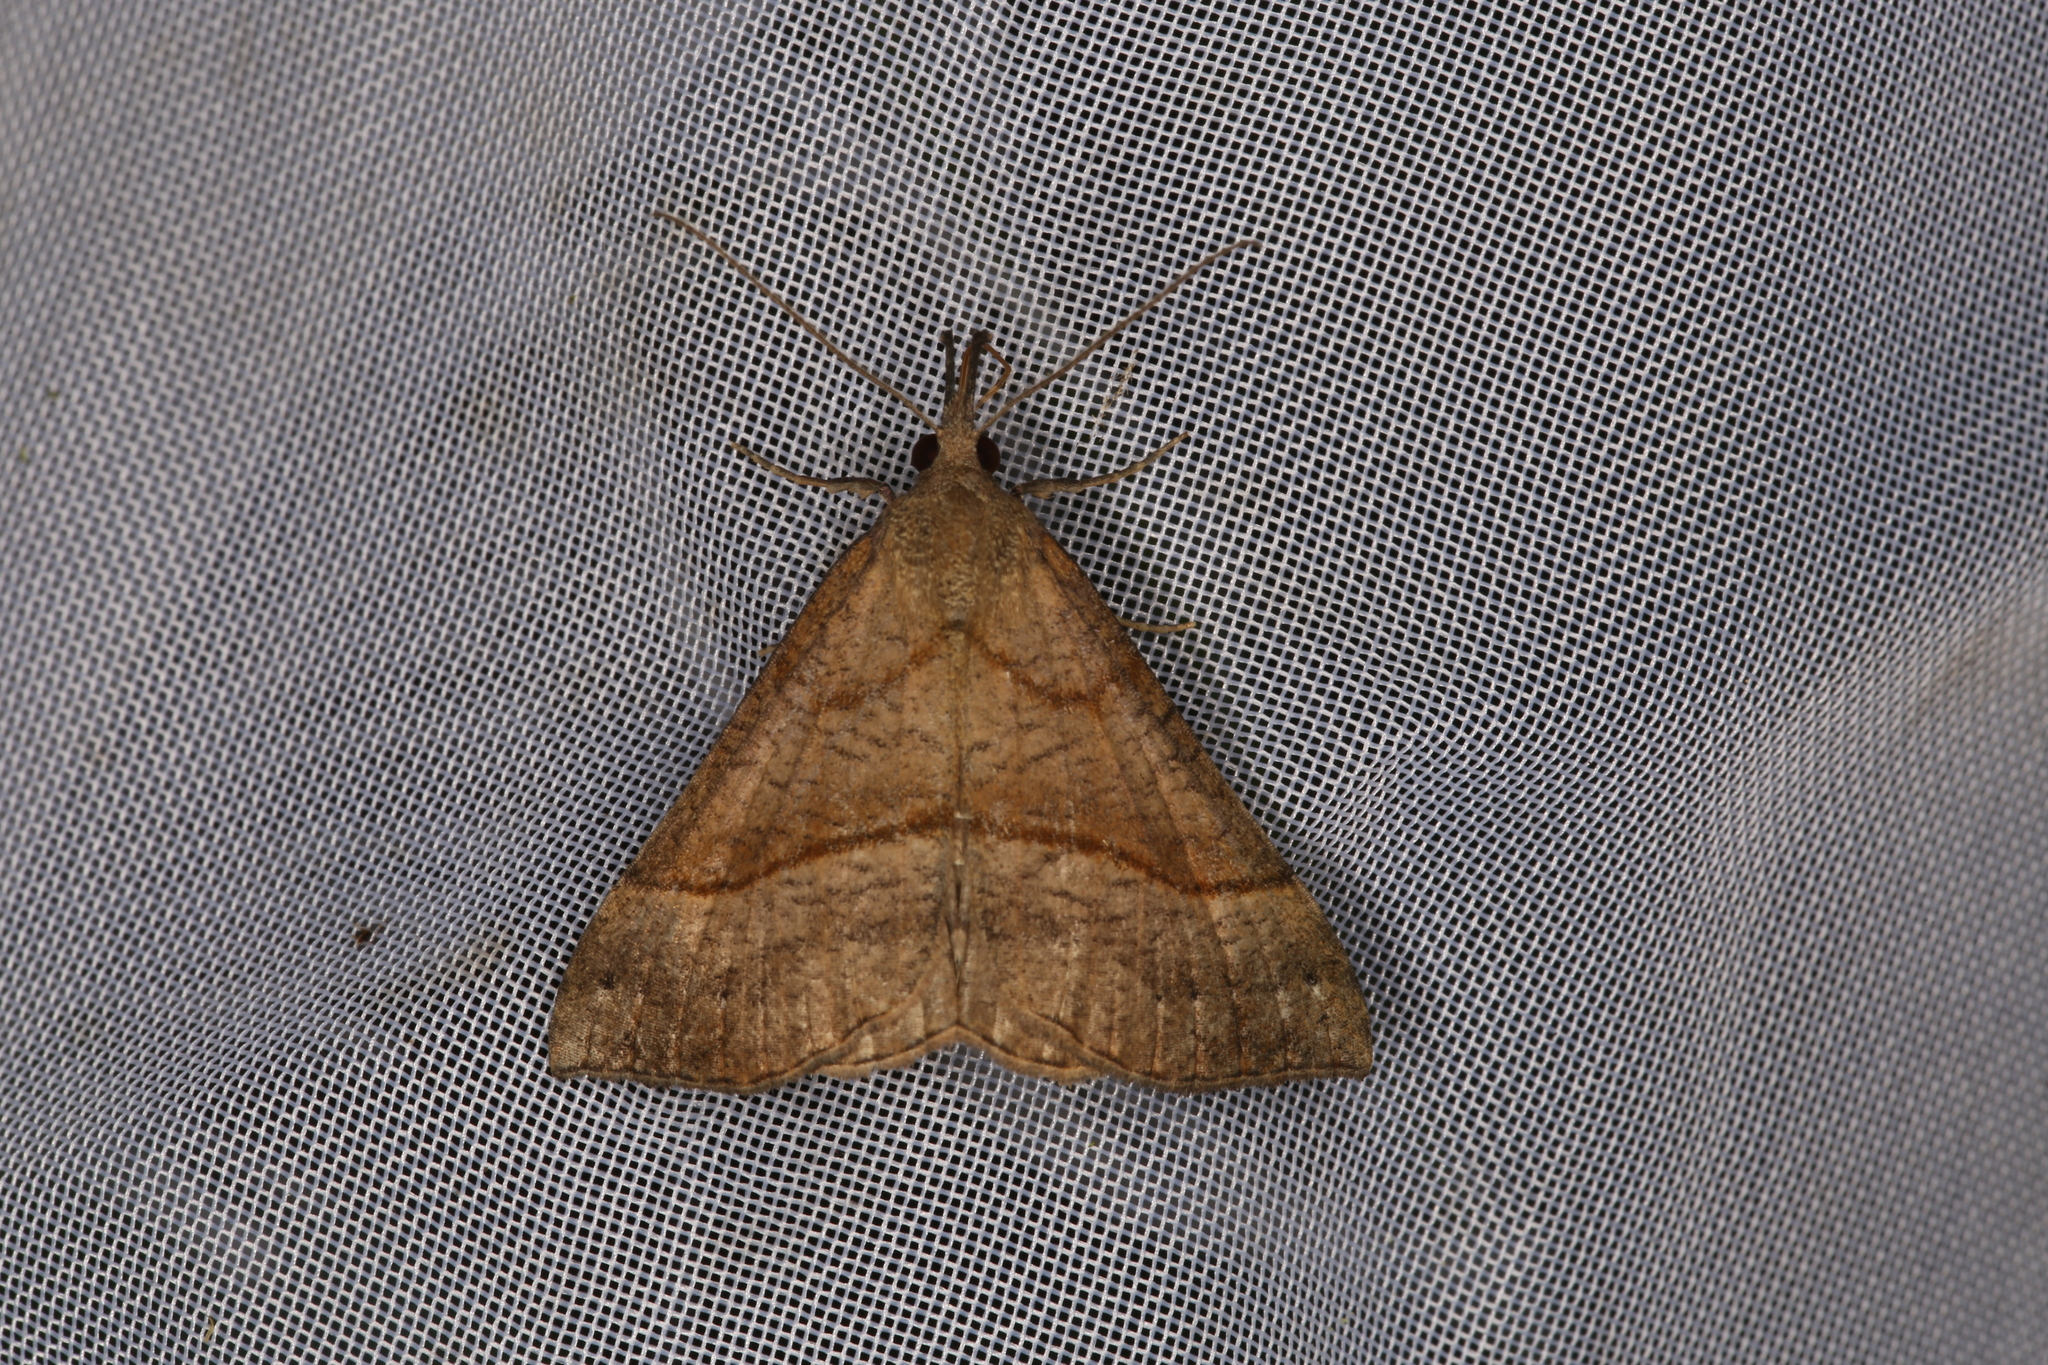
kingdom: Animalia
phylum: Arthropoda
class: Insecta
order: Lepidoptera
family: Erebidae
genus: Hypena
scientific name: Hypena proboscidalis
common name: Snout
